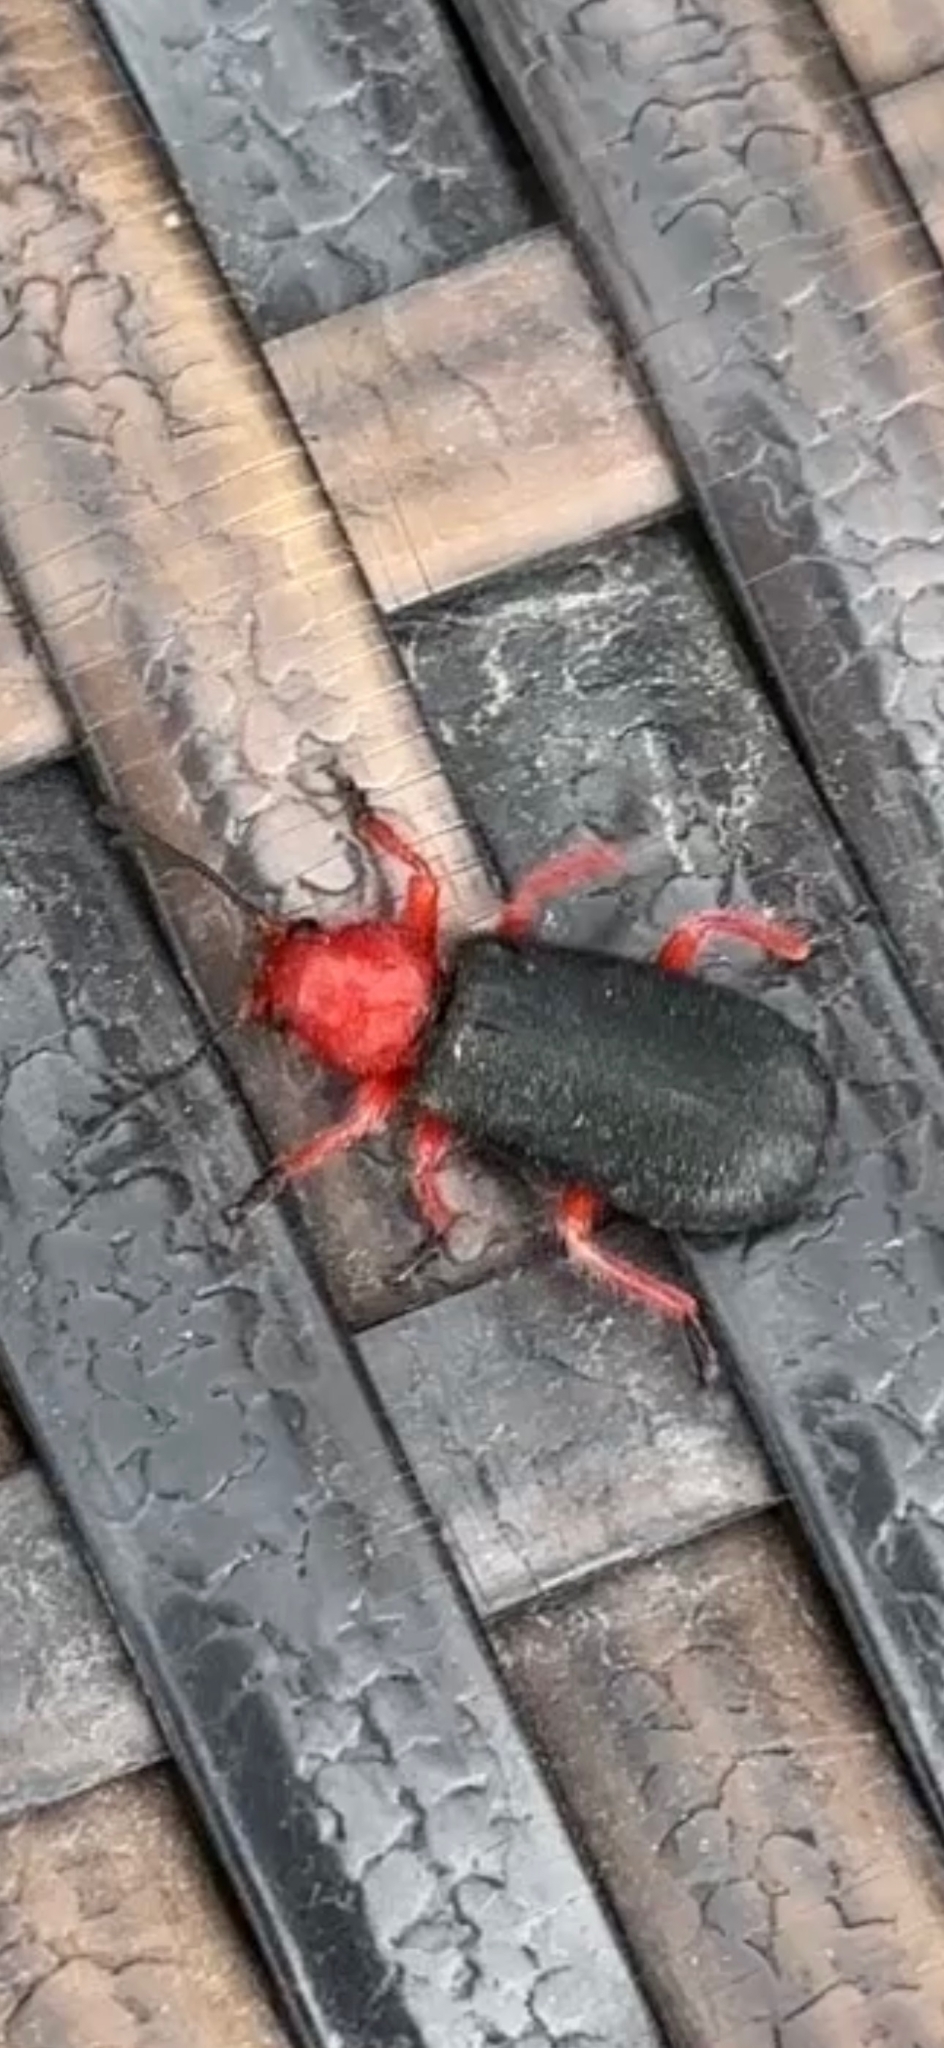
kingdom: Animalia
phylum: Arthropoda
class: Insecta
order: Coleoptera
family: Cleridae
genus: Chariessa
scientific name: Chariessa elegans
